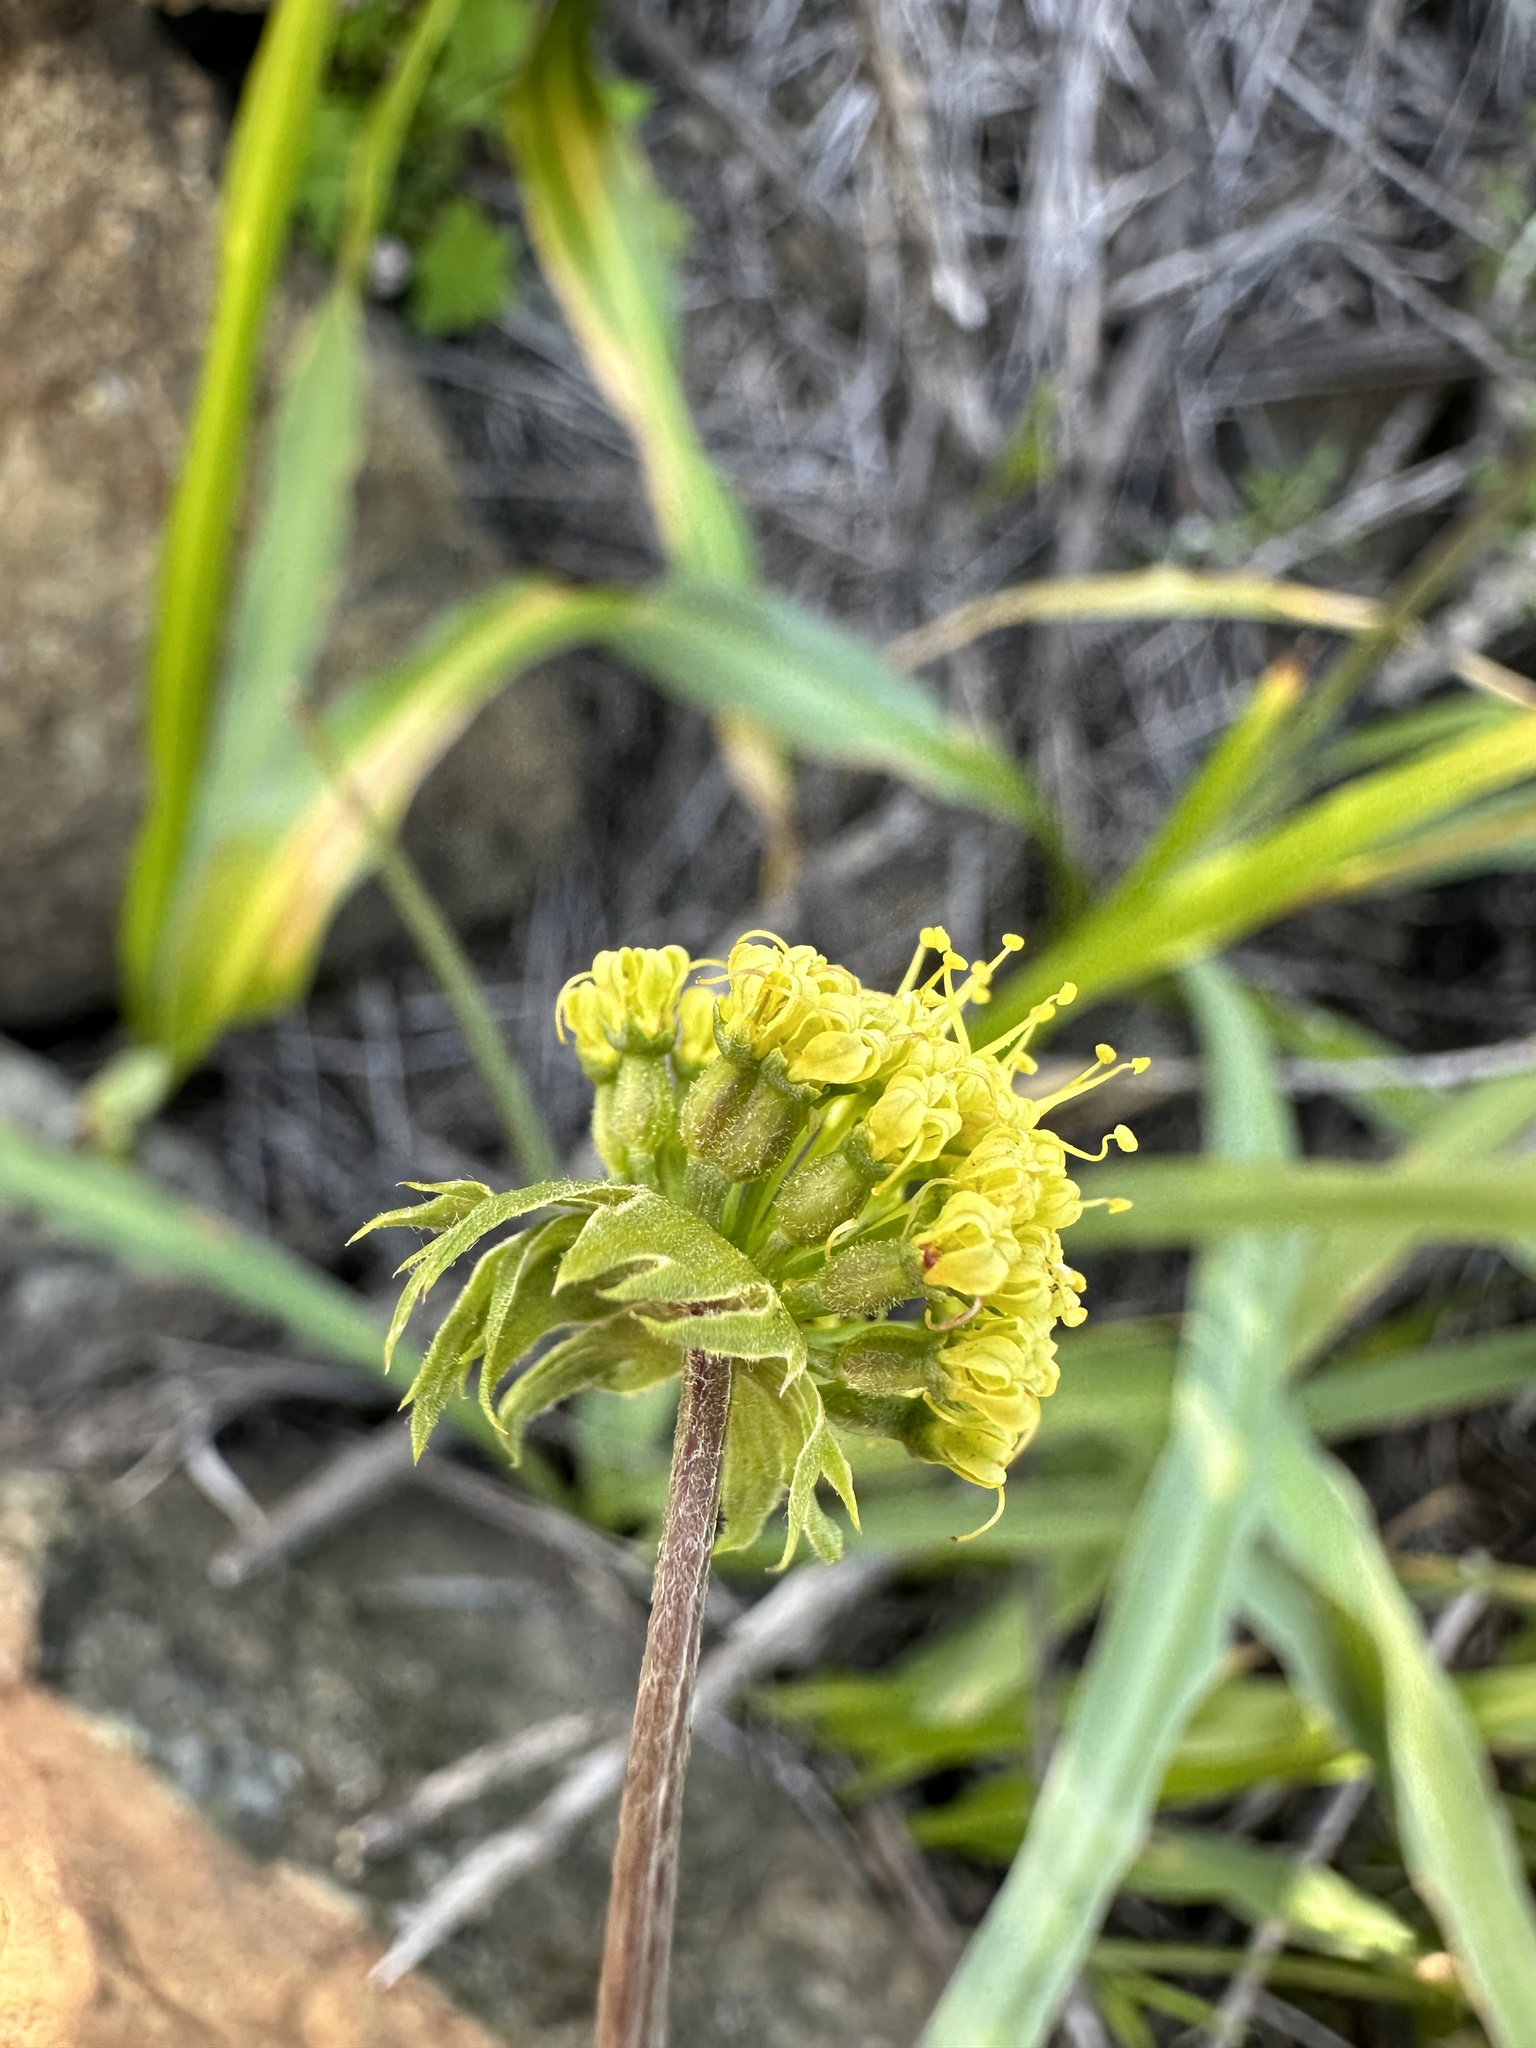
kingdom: Plantae
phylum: Tracheophyta
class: Magnoliopsida
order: Apiales
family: Apiaceae
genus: Lomatium
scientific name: Lomatium macrocarpum
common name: Big-seed biscuitroot
